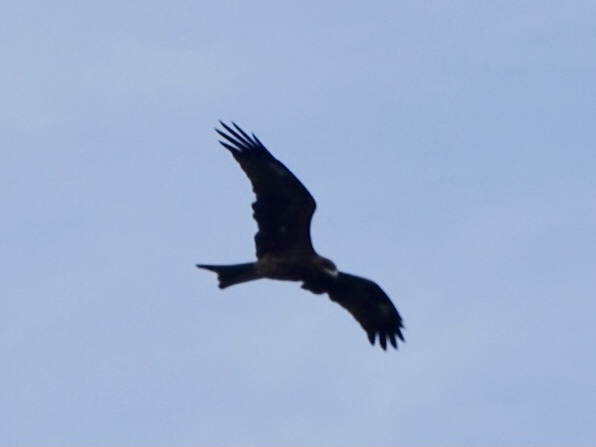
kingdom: Animalia
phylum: Chordata
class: Aves
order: Accipitriformes
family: Accipitridae
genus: Milvus
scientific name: Milvus migrans
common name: Black kite
